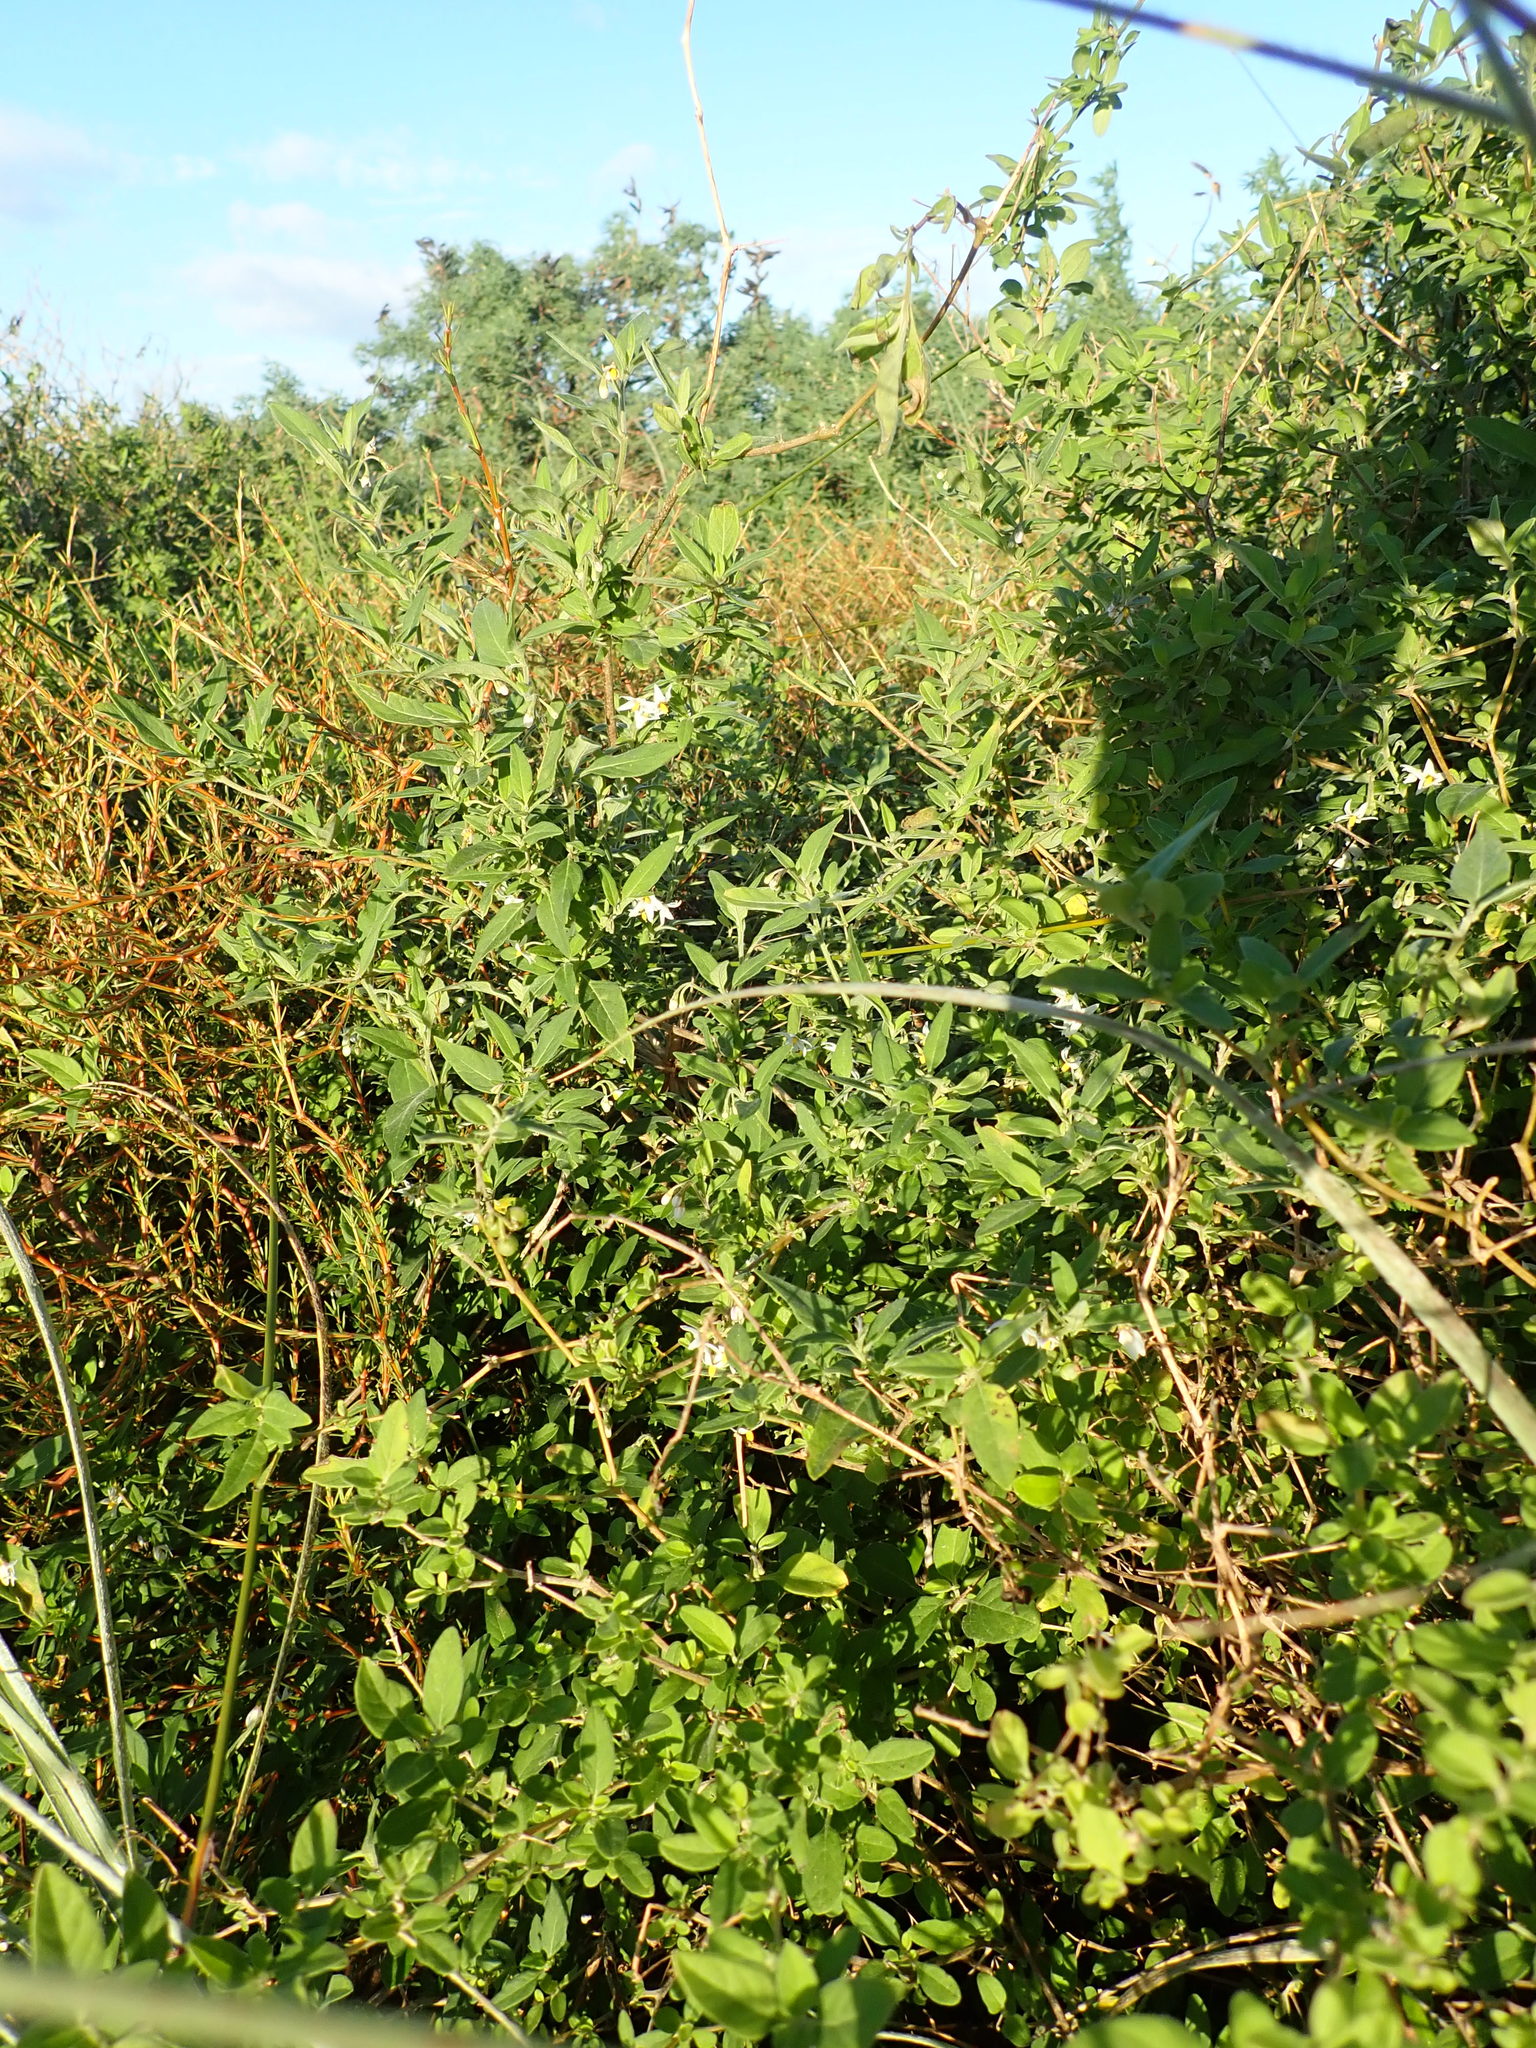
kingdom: Plantae
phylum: Tracheophyta
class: Magnoliopsida
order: Solanales
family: Solanaceae
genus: Solanum
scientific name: Solanum chenopodioides
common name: Tall nightshade
